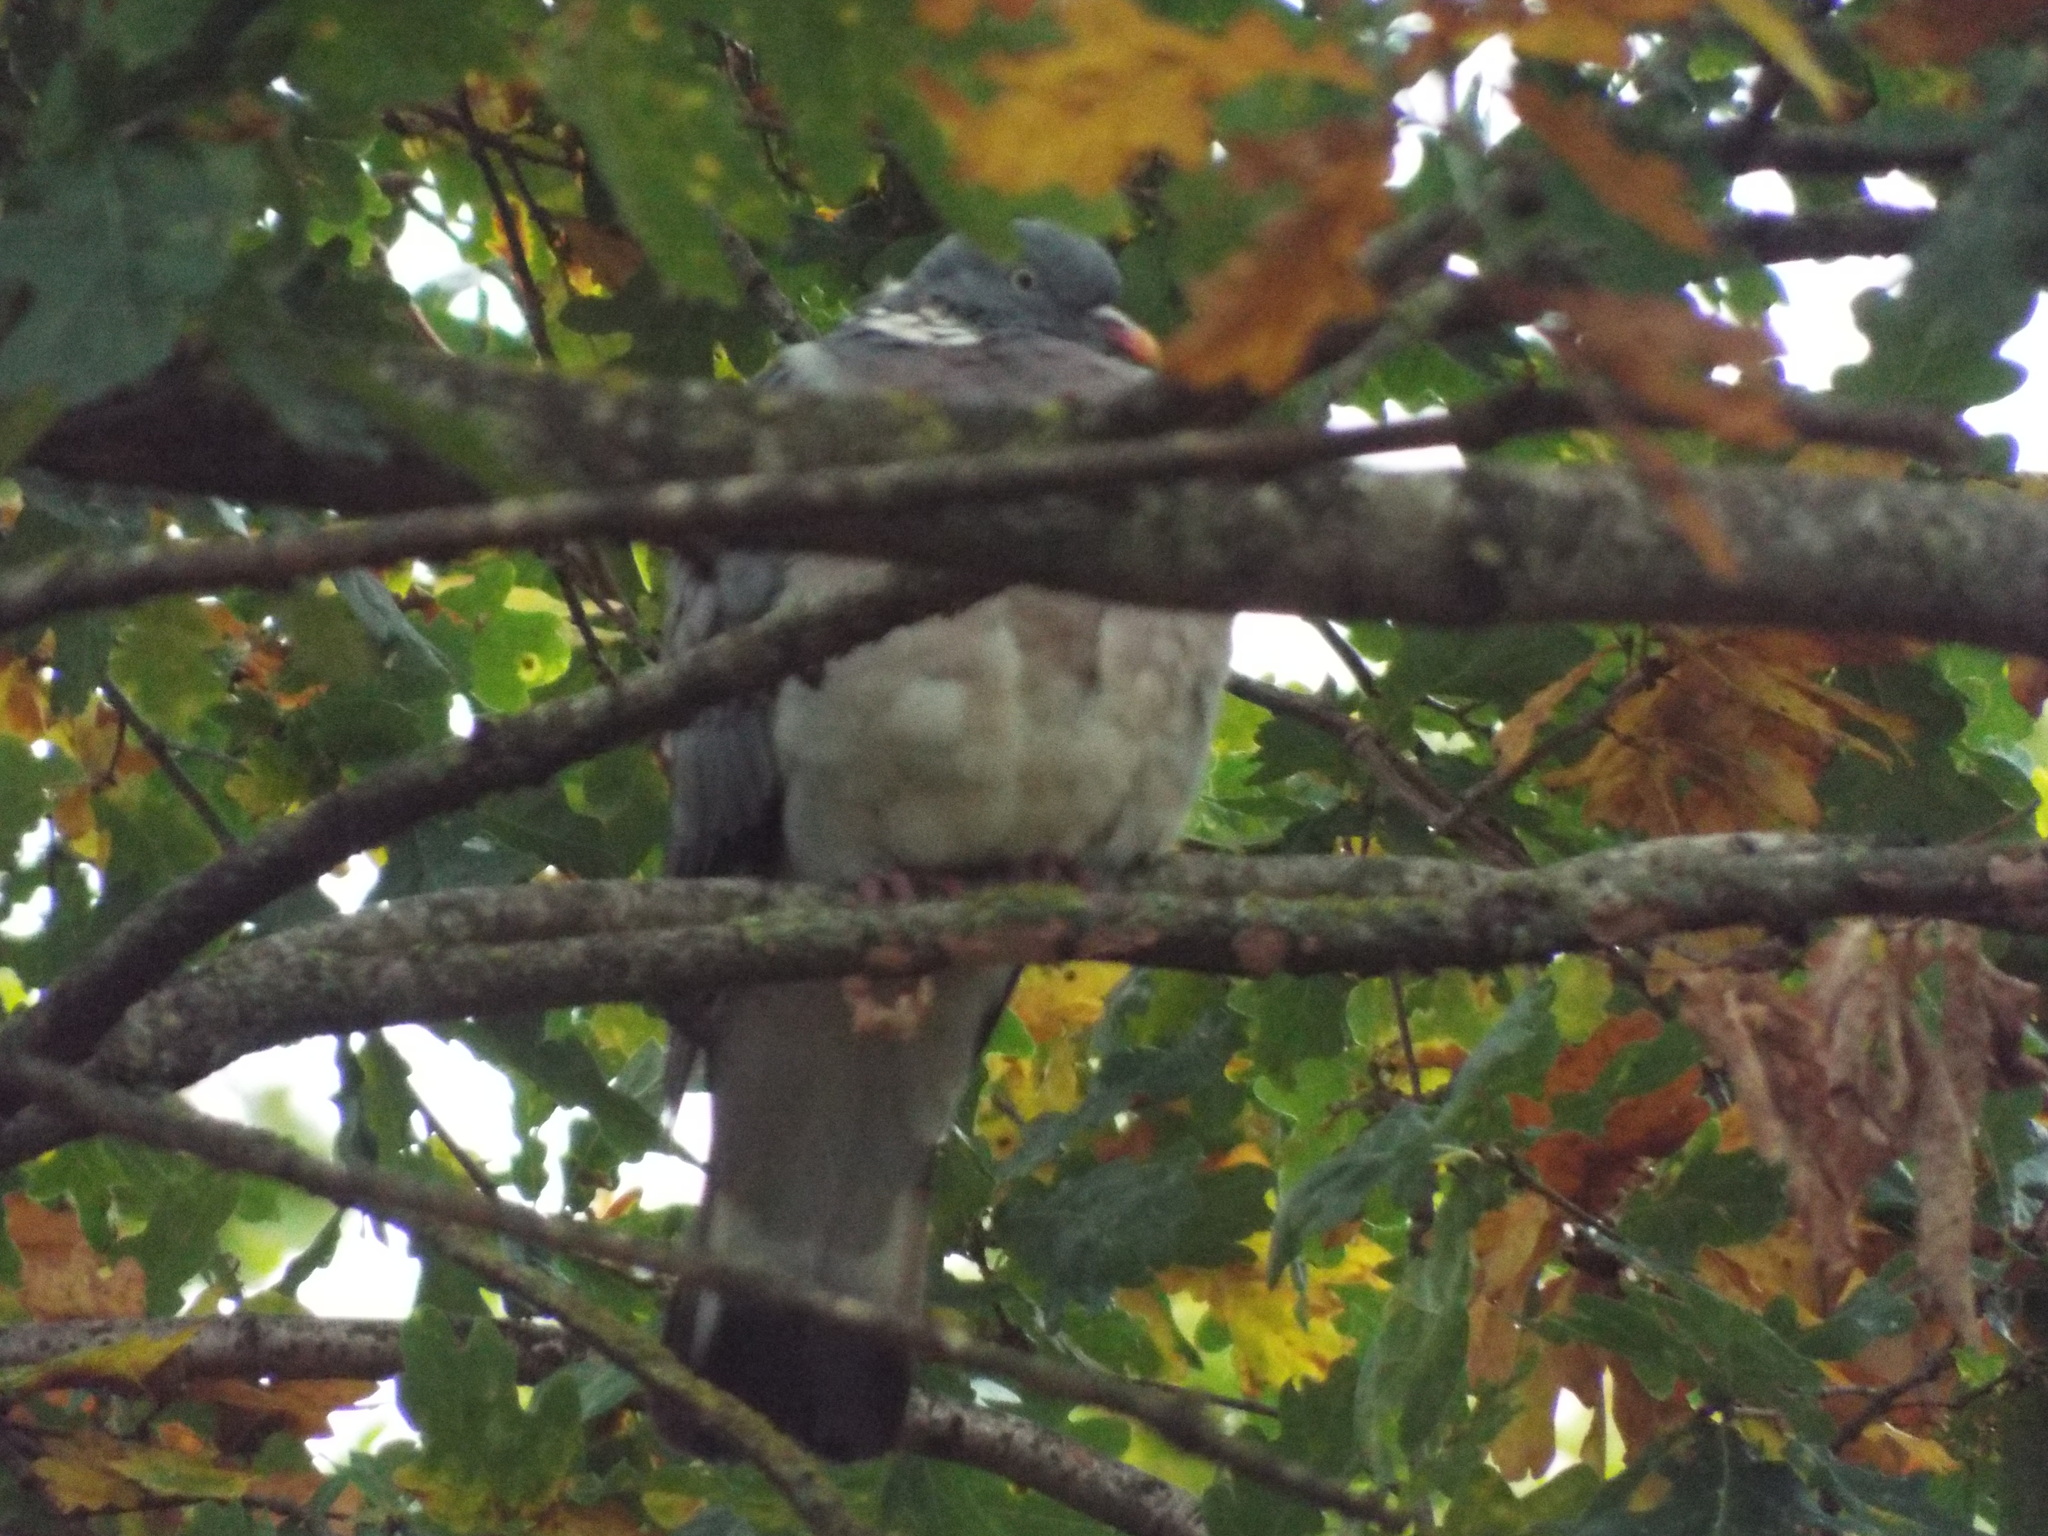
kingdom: Animalia
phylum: Chordata
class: Aves
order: Columbiformes
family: Columbidae
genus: Columba
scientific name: Columba palumbus
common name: Common wood pigeon
